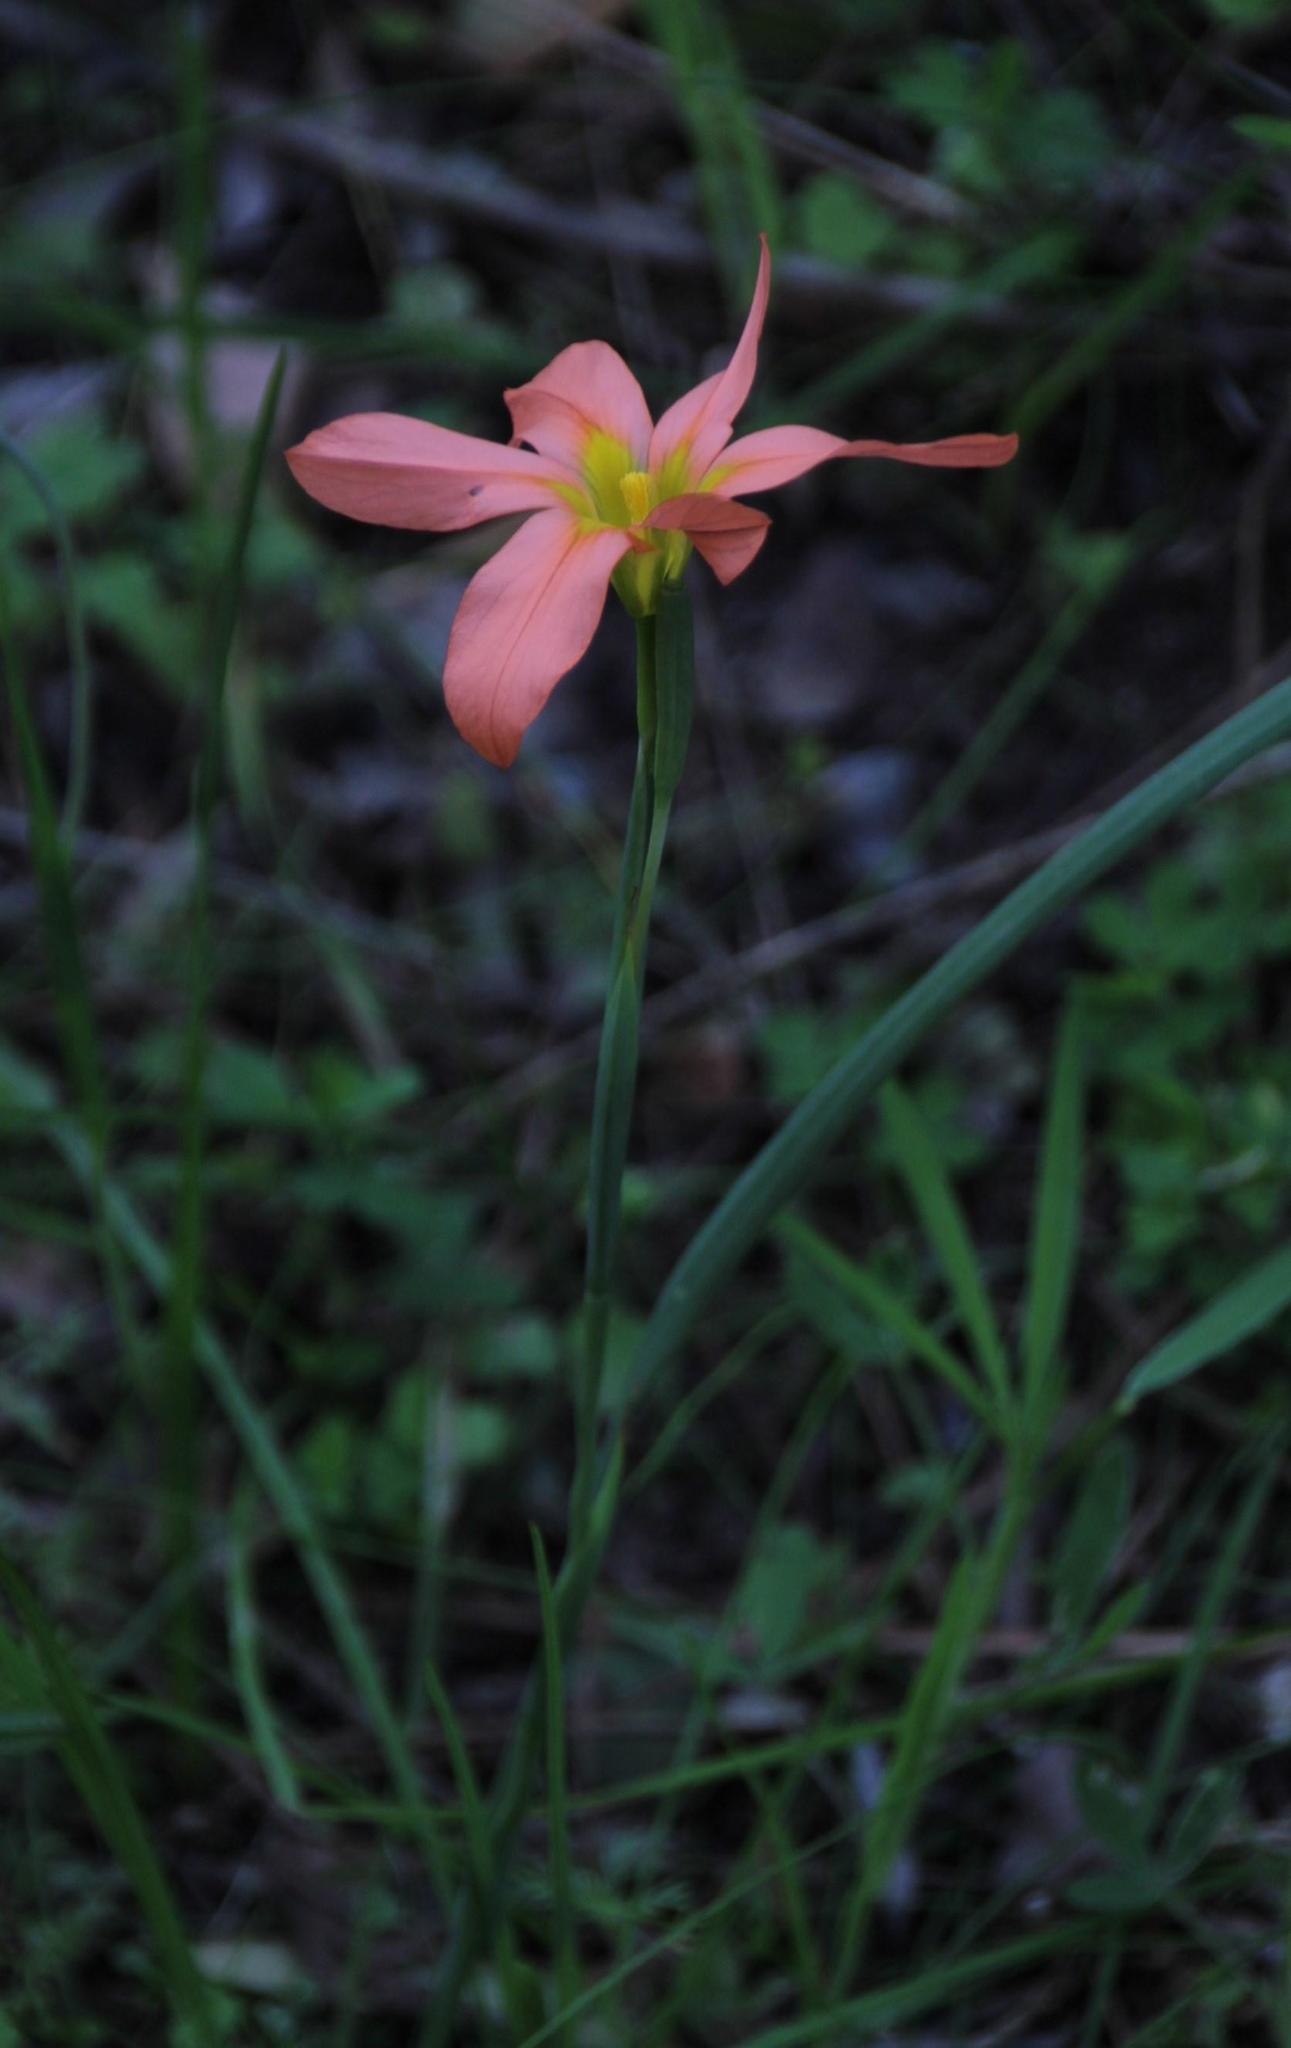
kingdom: Plantae
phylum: Tracheophyta
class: Liliopsida
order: Asparagales
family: Iridaceae
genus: Moraea
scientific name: Moraea flaccida
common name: One-leaf cape-tulip
